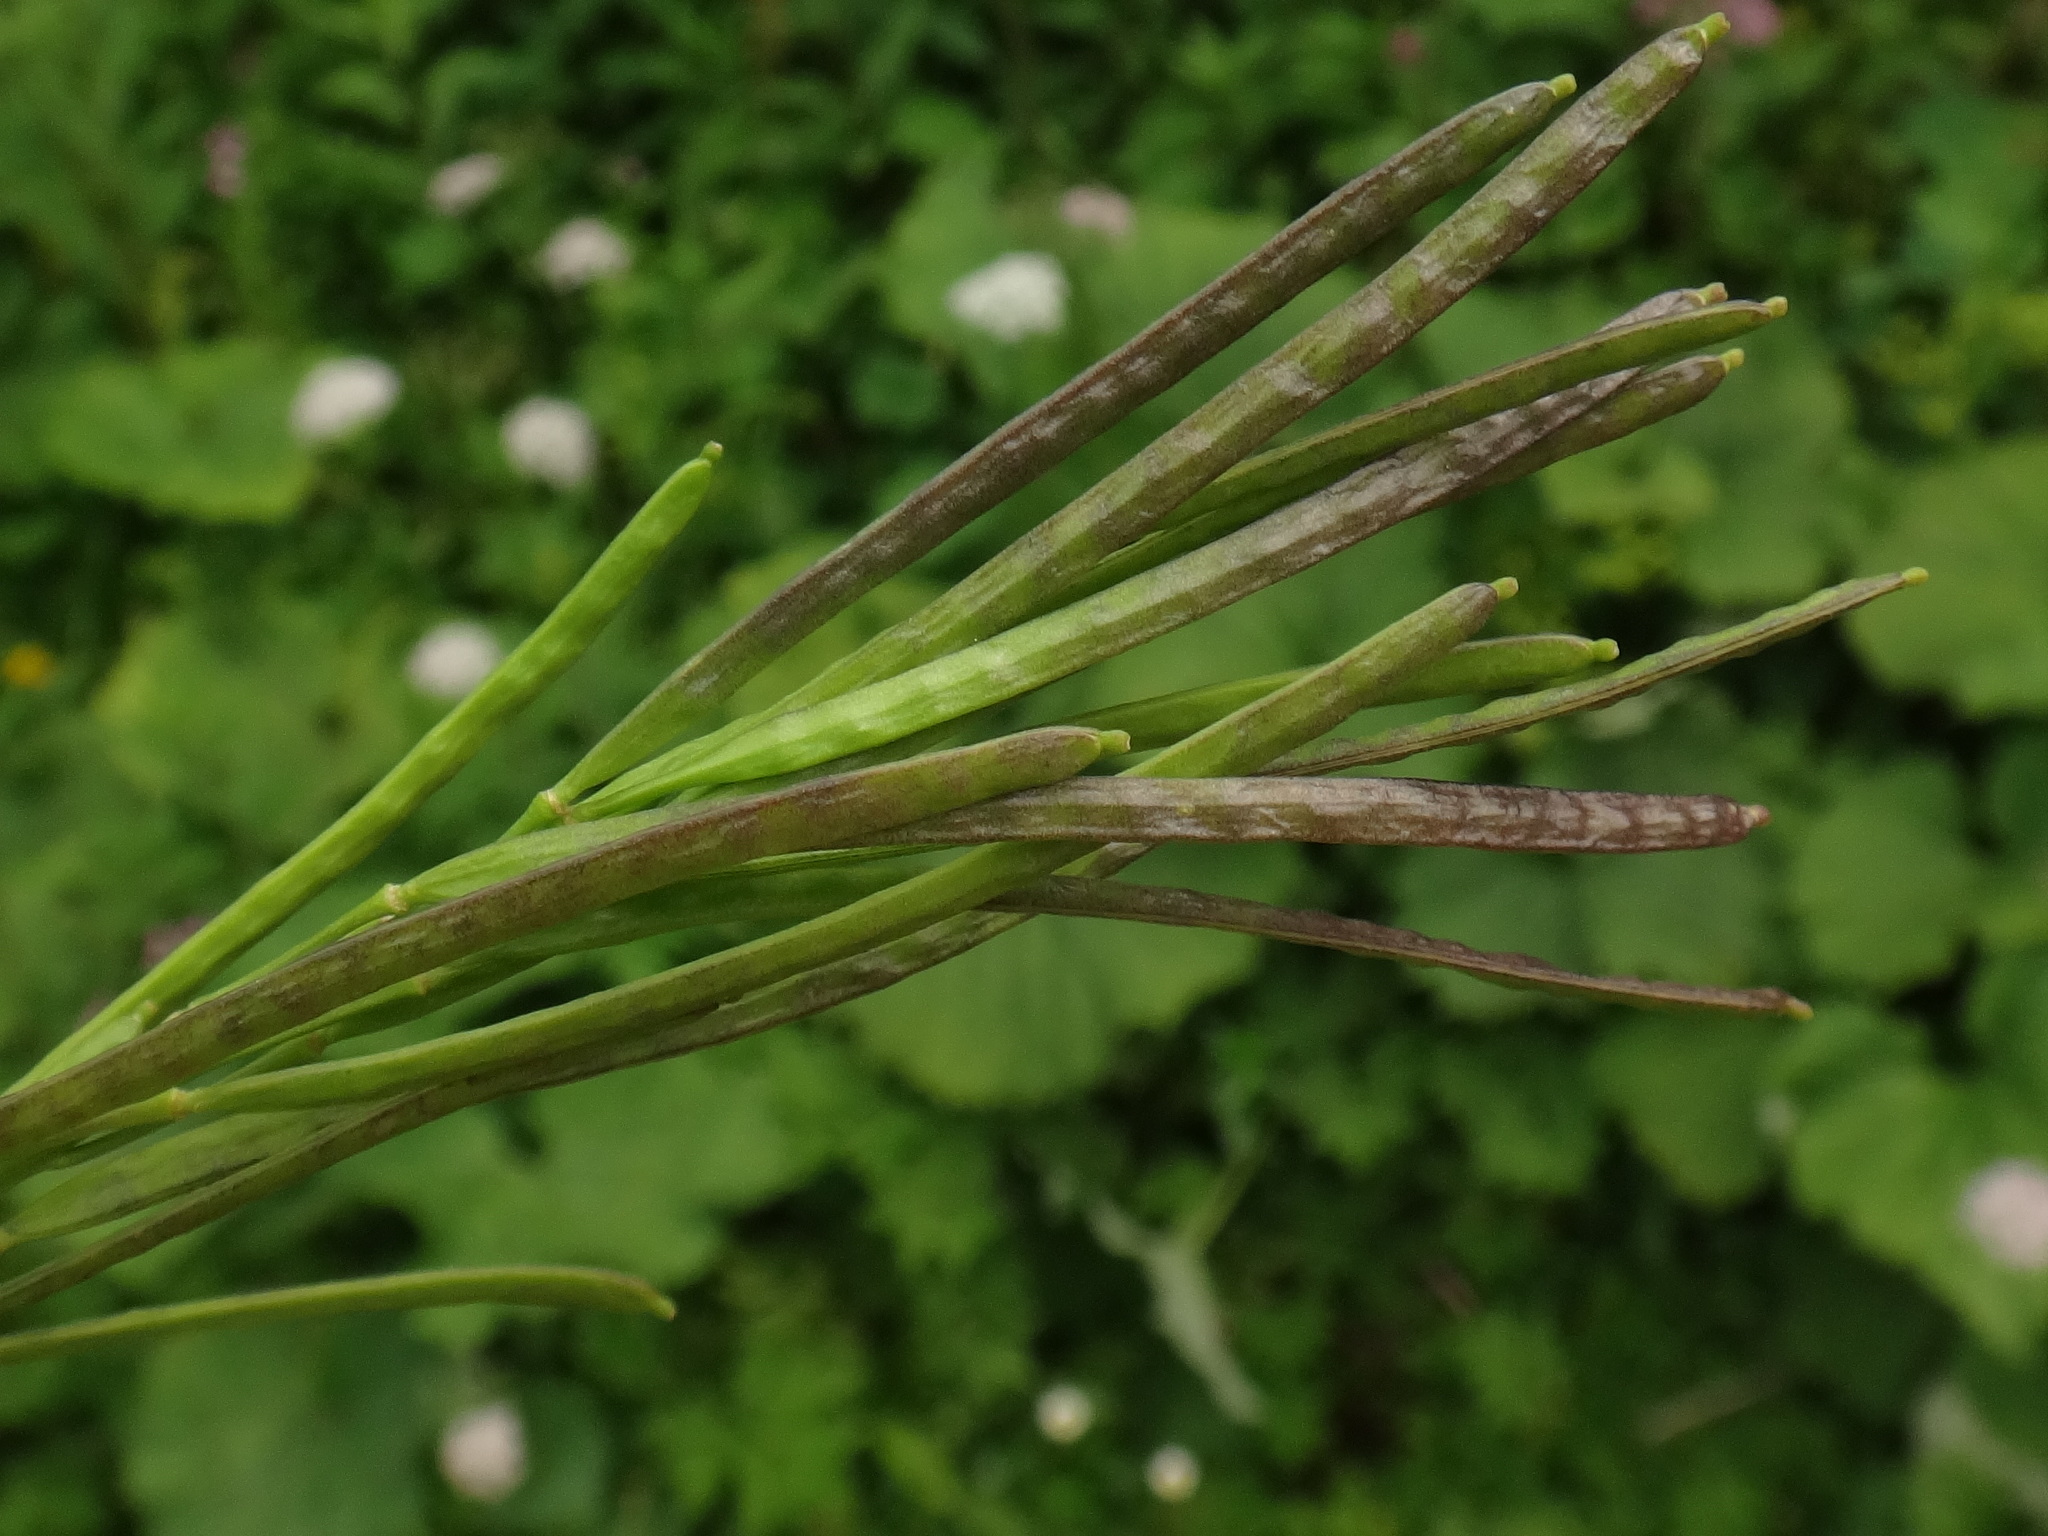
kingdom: Plantae
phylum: Tracheophyta
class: Magnoliopsida
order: Brassicales
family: Brassicaceae
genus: Arabis
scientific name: Arabis soyeri
